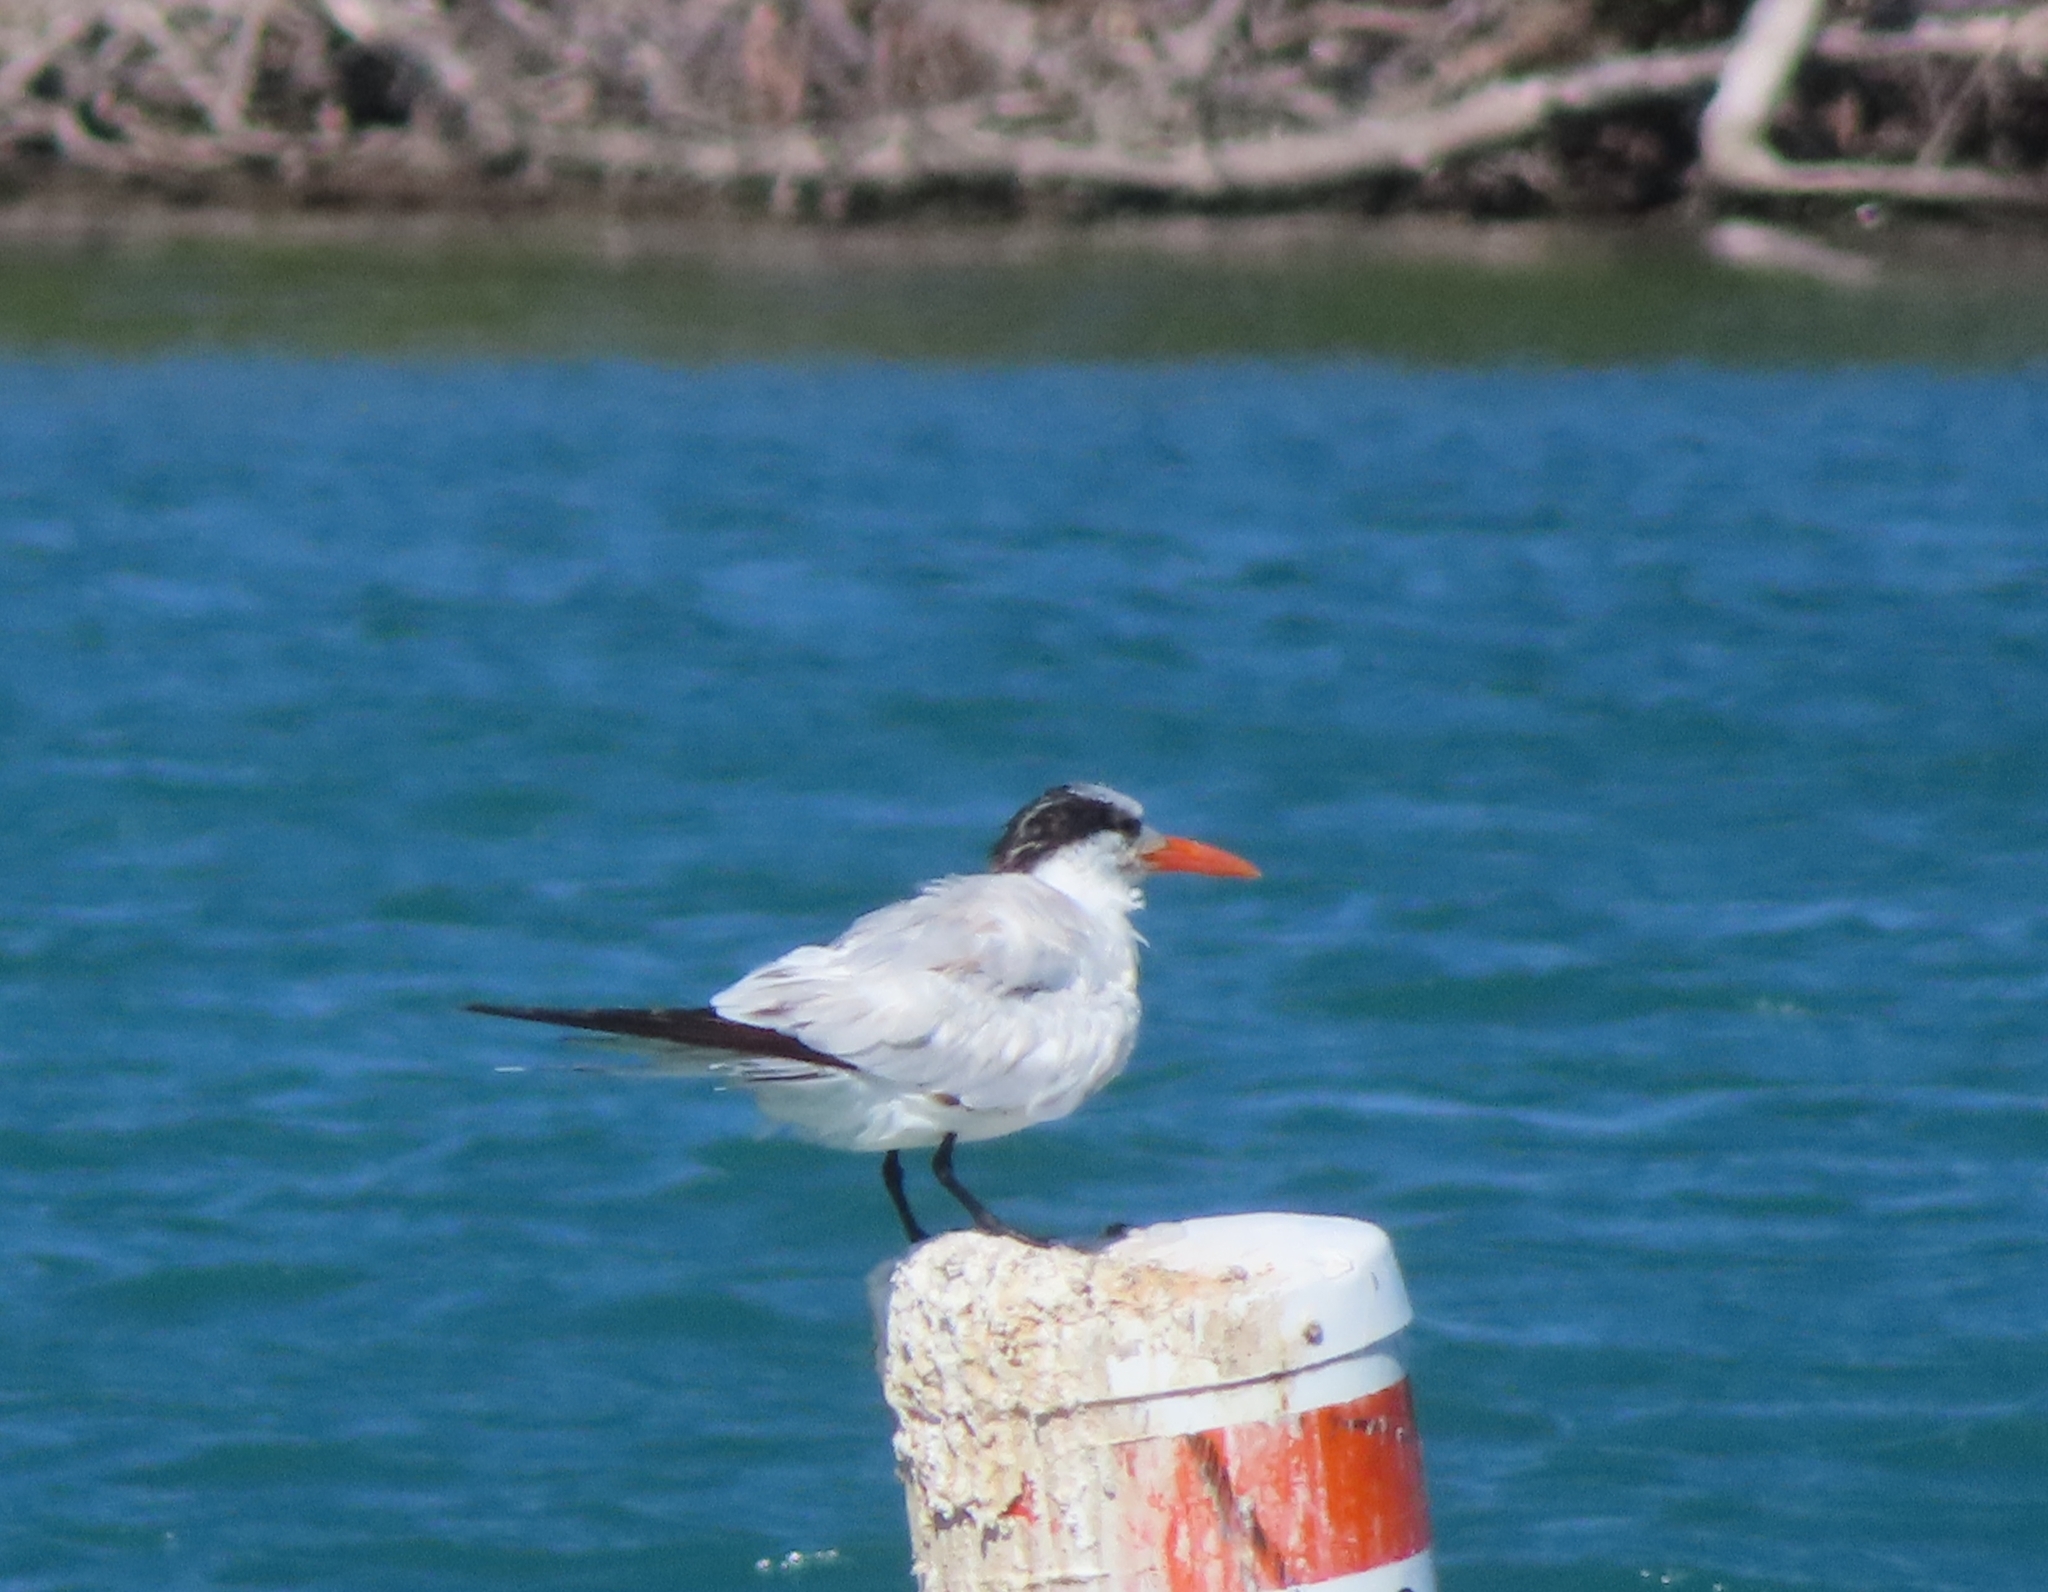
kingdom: Animalia
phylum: Chordata
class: Aves
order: Charadriiformes
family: Laridae
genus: Thalasseus
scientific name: Thalasseus maximus
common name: Royal tern
